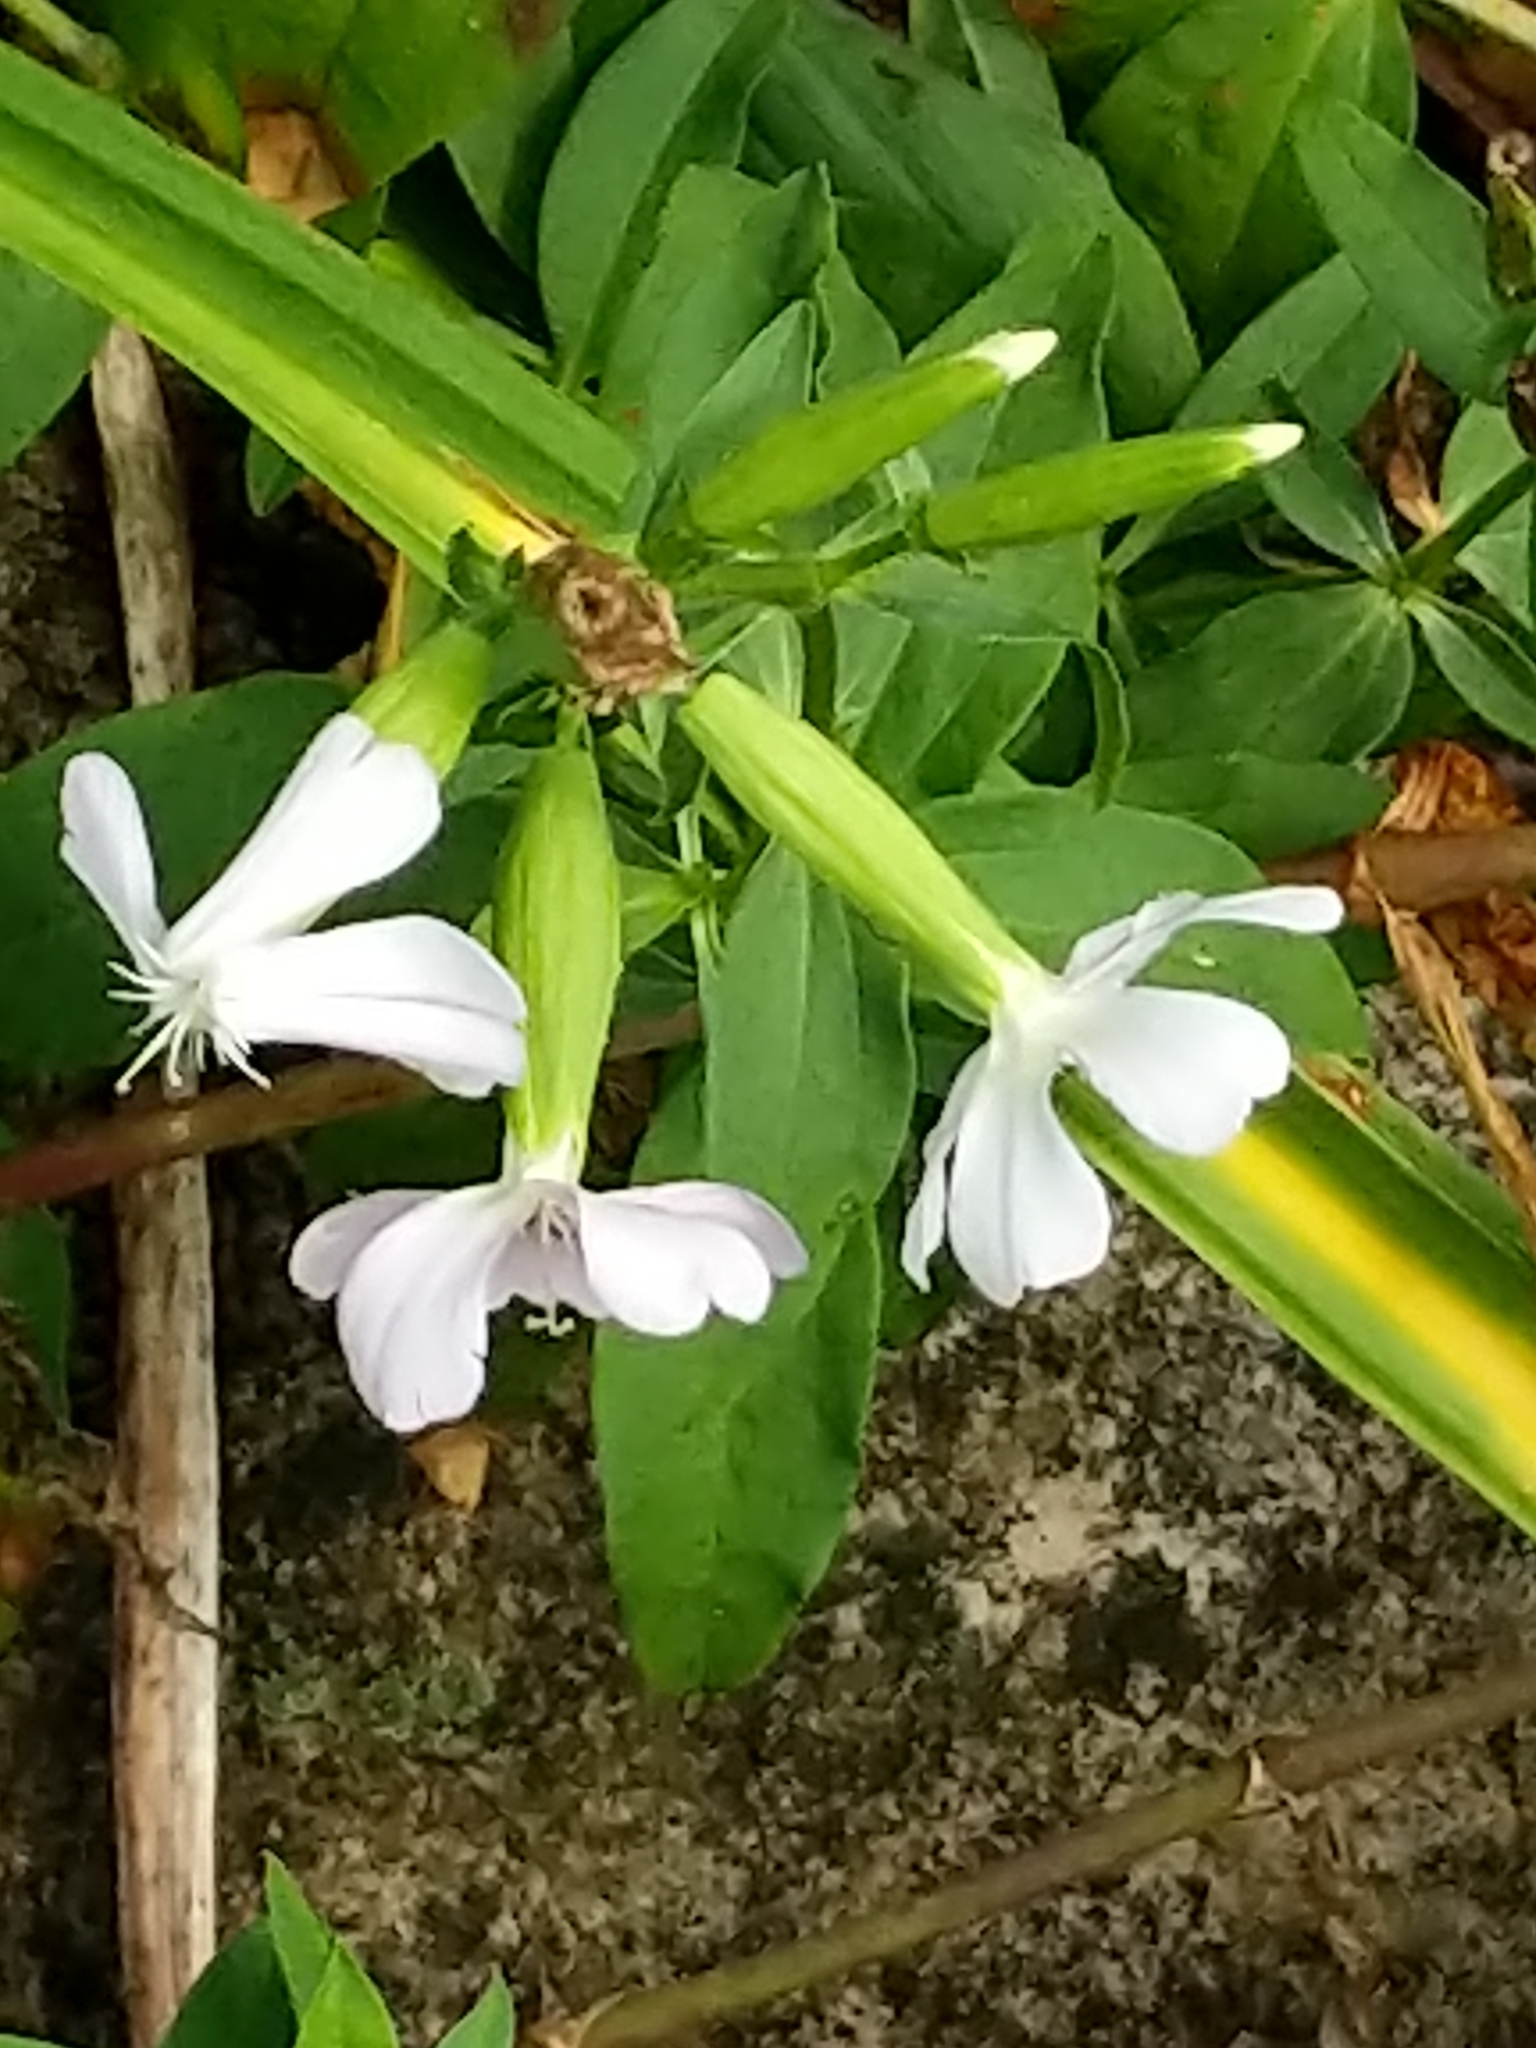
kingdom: Plantae
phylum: Tracheophyta
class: Magnoliopsida
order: Caryophyllales
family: Caryophyllaceae
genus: Saponaria
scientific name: Saponaria officinalis
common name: Soapwort
